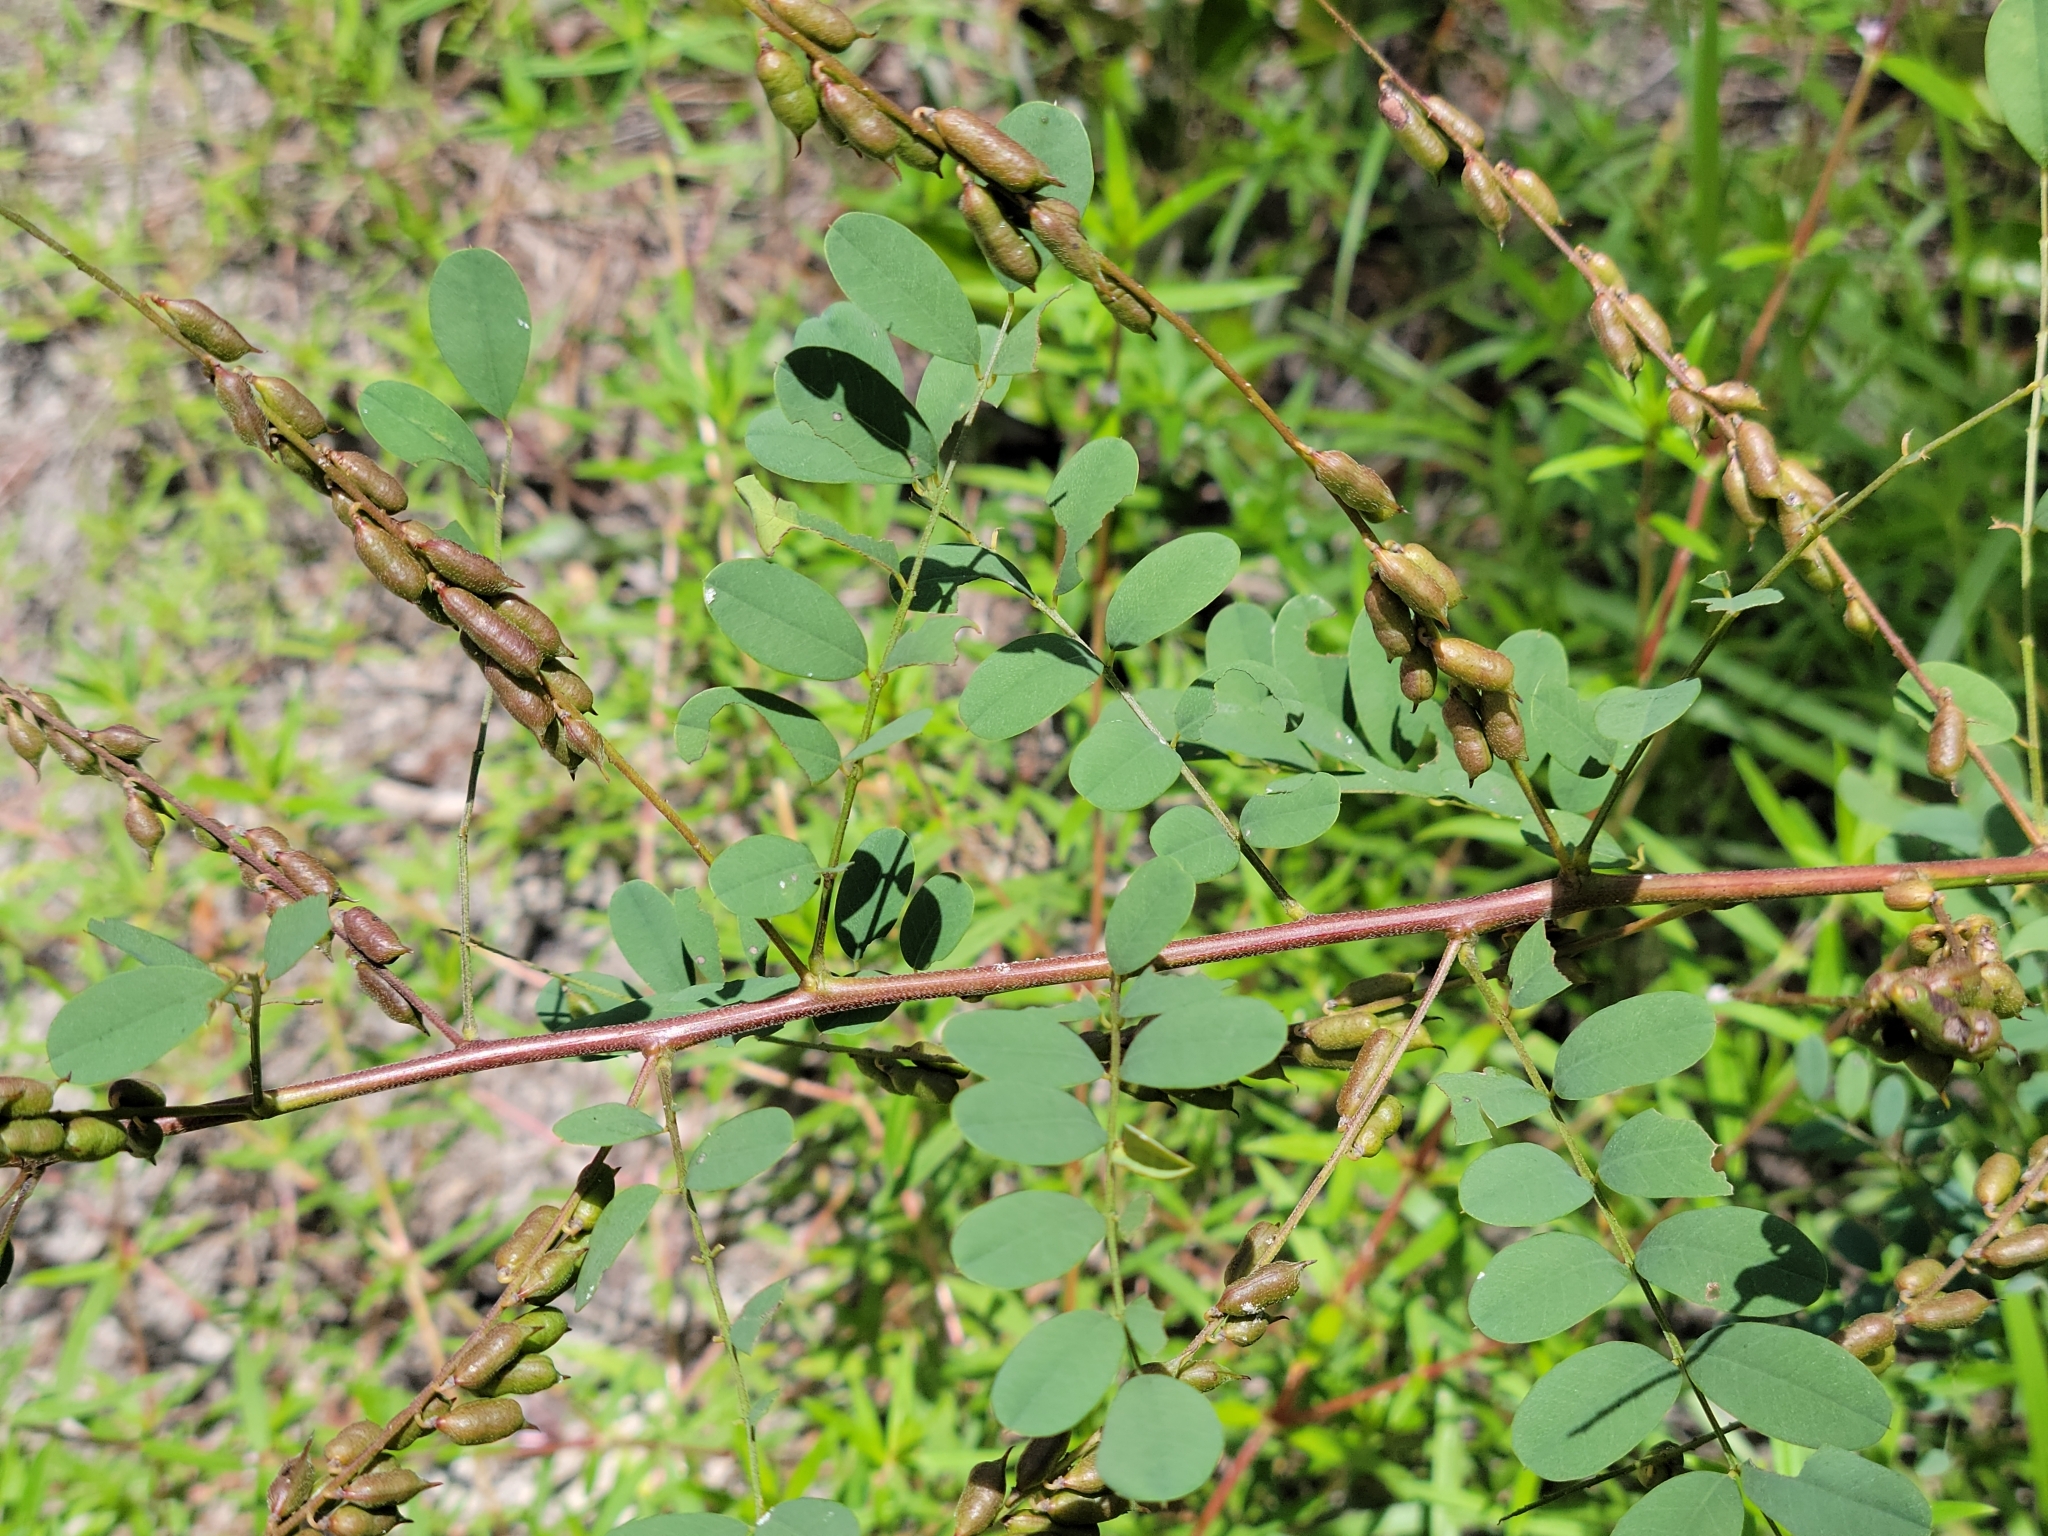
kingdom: Plantae
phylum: Tracheophyta
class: Magnoliopsida
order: Fabales
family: Fabaceae
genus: Indigofera
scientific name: Indigofera caroliniana
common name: Wild indigo
